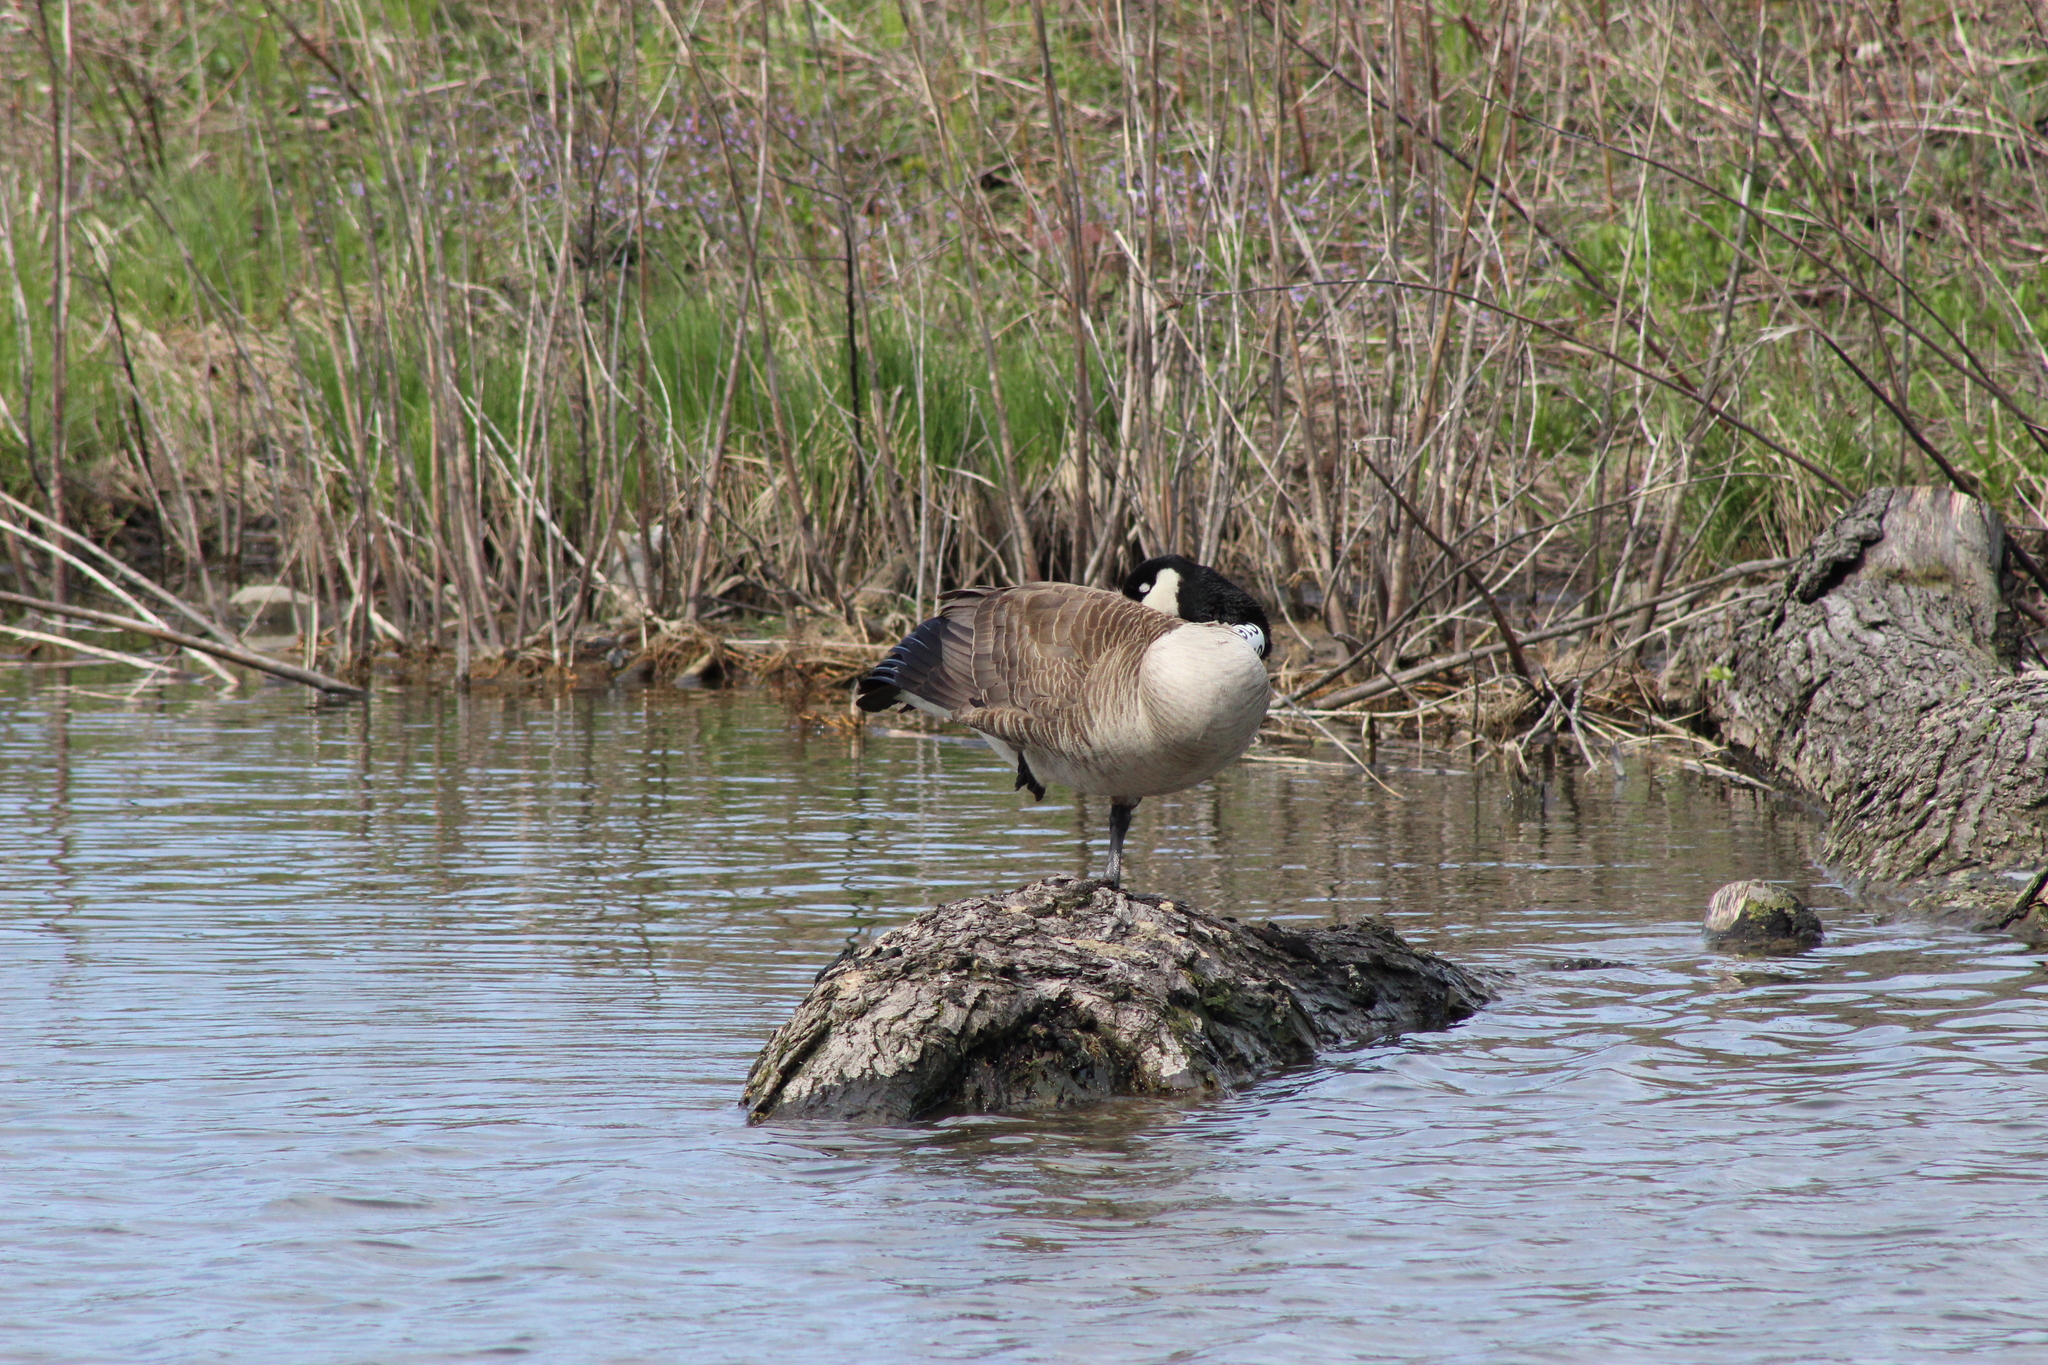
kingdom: Animalia
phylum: Chordata
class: Aves
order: Anseriformes
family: Anatidae
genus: Branta
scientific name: Branta canadensis
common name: Canada goose
